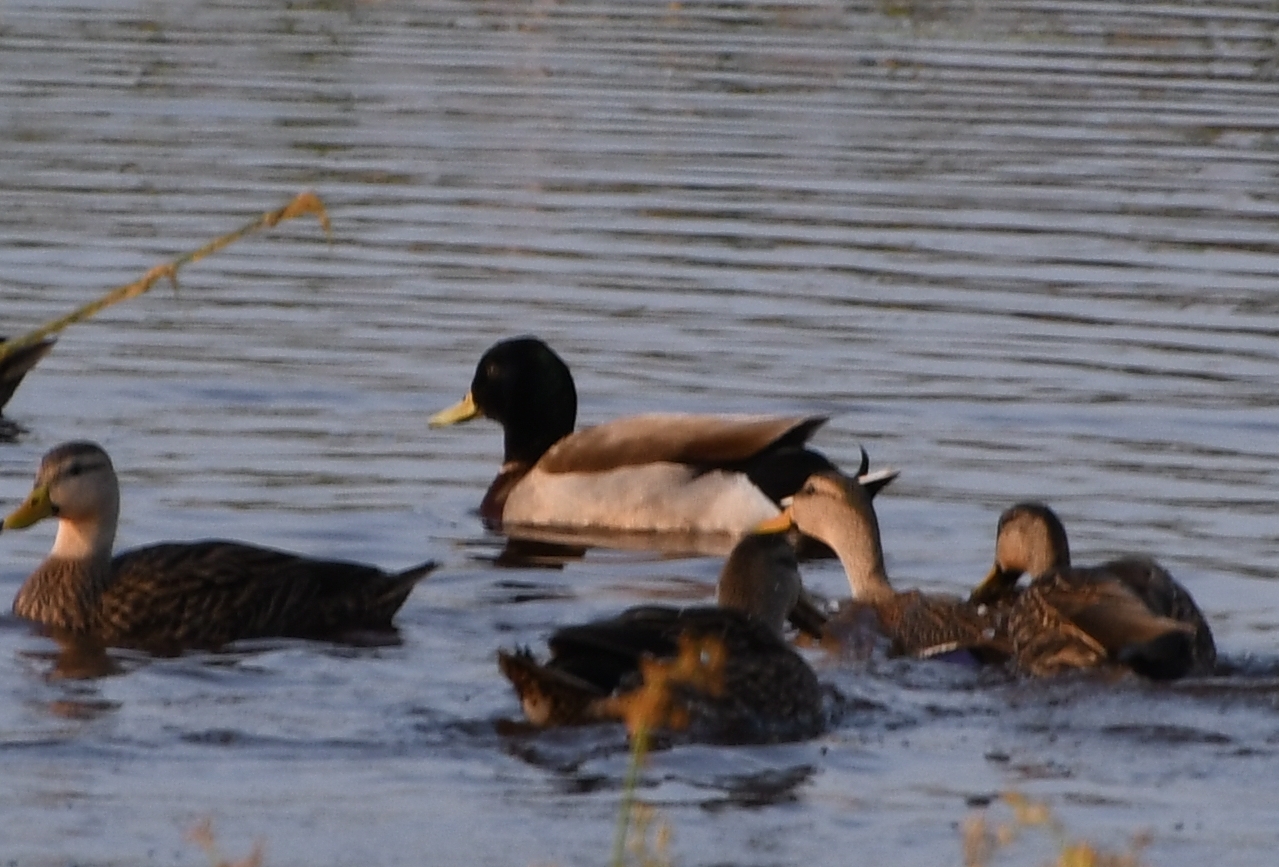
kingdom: Animalia
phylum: Chordata
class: Aves
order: Anseriformes
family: Anatidae
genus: Anas
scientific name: Anas platyrhynchos
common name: Mallard
